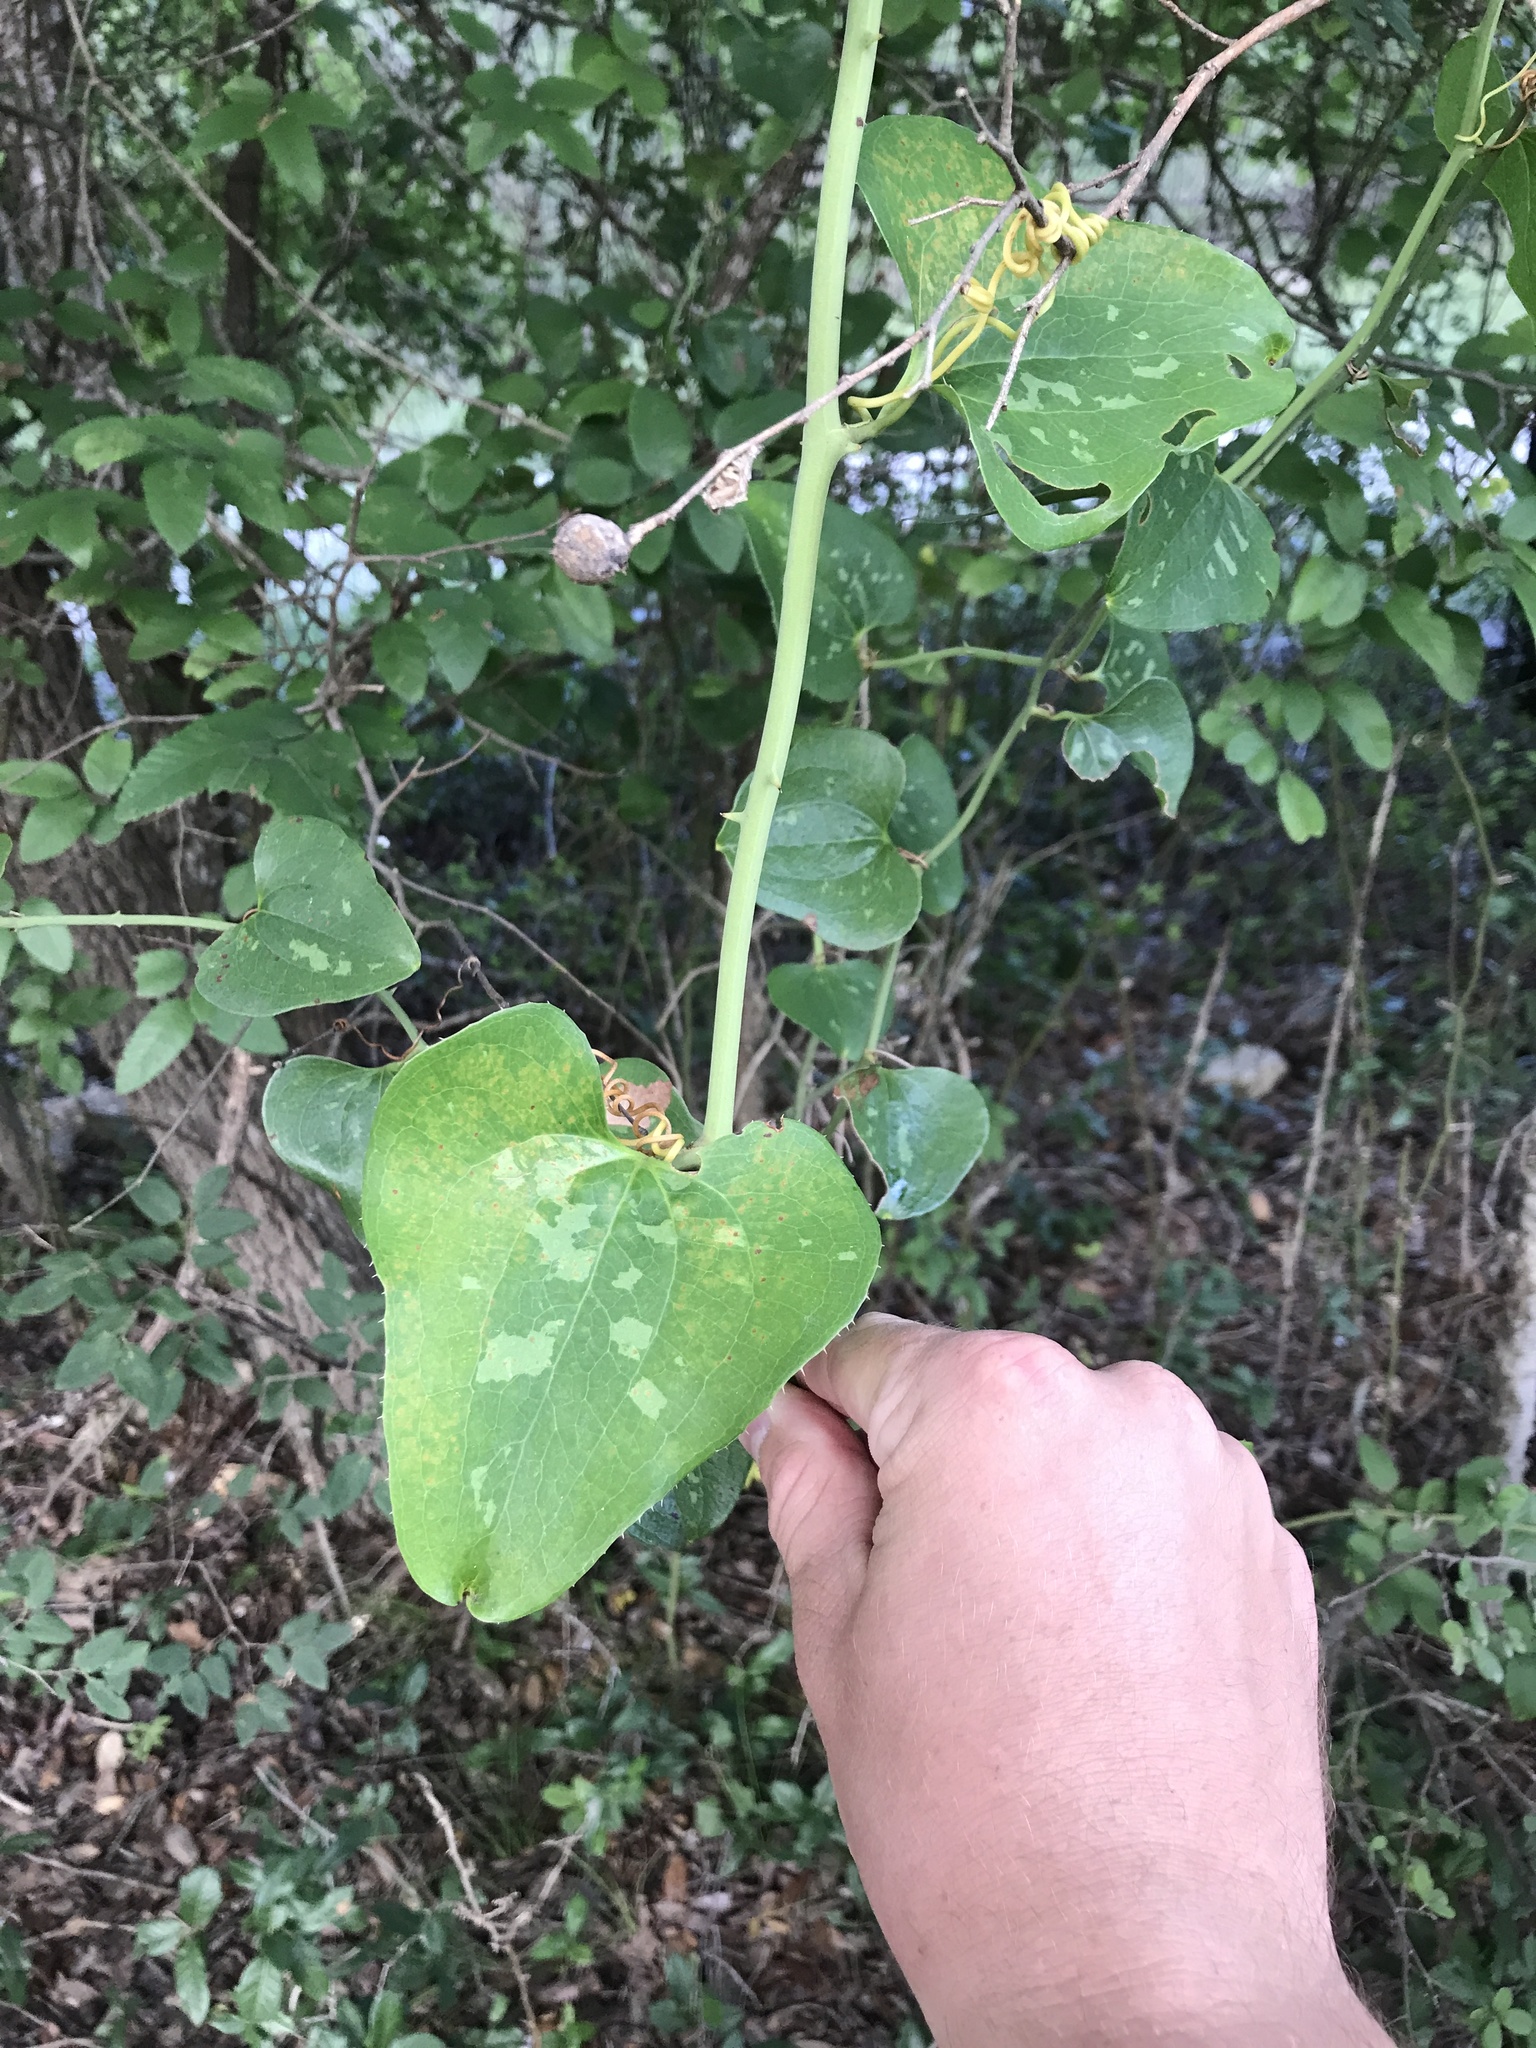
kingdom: Plantae
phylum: Tracheophyta
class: Liliopsida
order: Liliales
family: Smilacaceae
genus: Smilax
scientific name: Smilax bona-nox
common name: Catbrier
